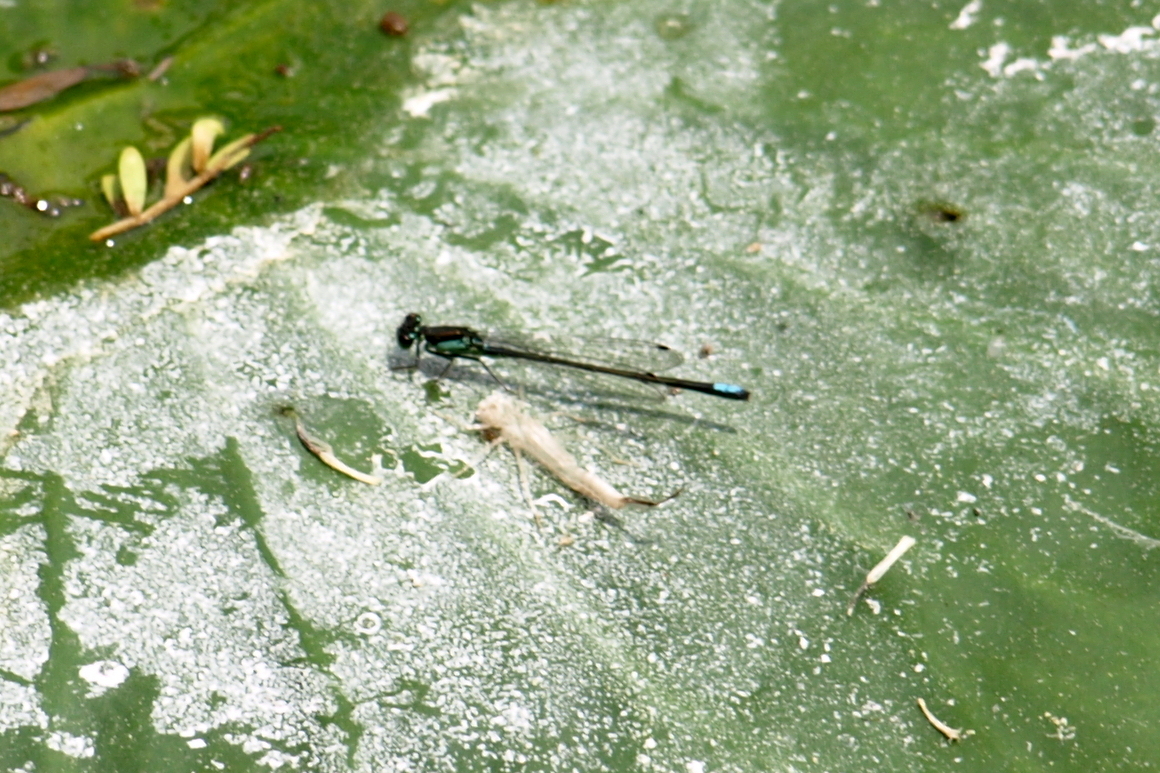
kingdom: Animalia
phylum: Arthropoda
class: Insecta
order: Odonata
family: Coenagrionidae
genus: Ischnura
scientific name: Ischnura denticollis
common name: Black-fronted forktail
